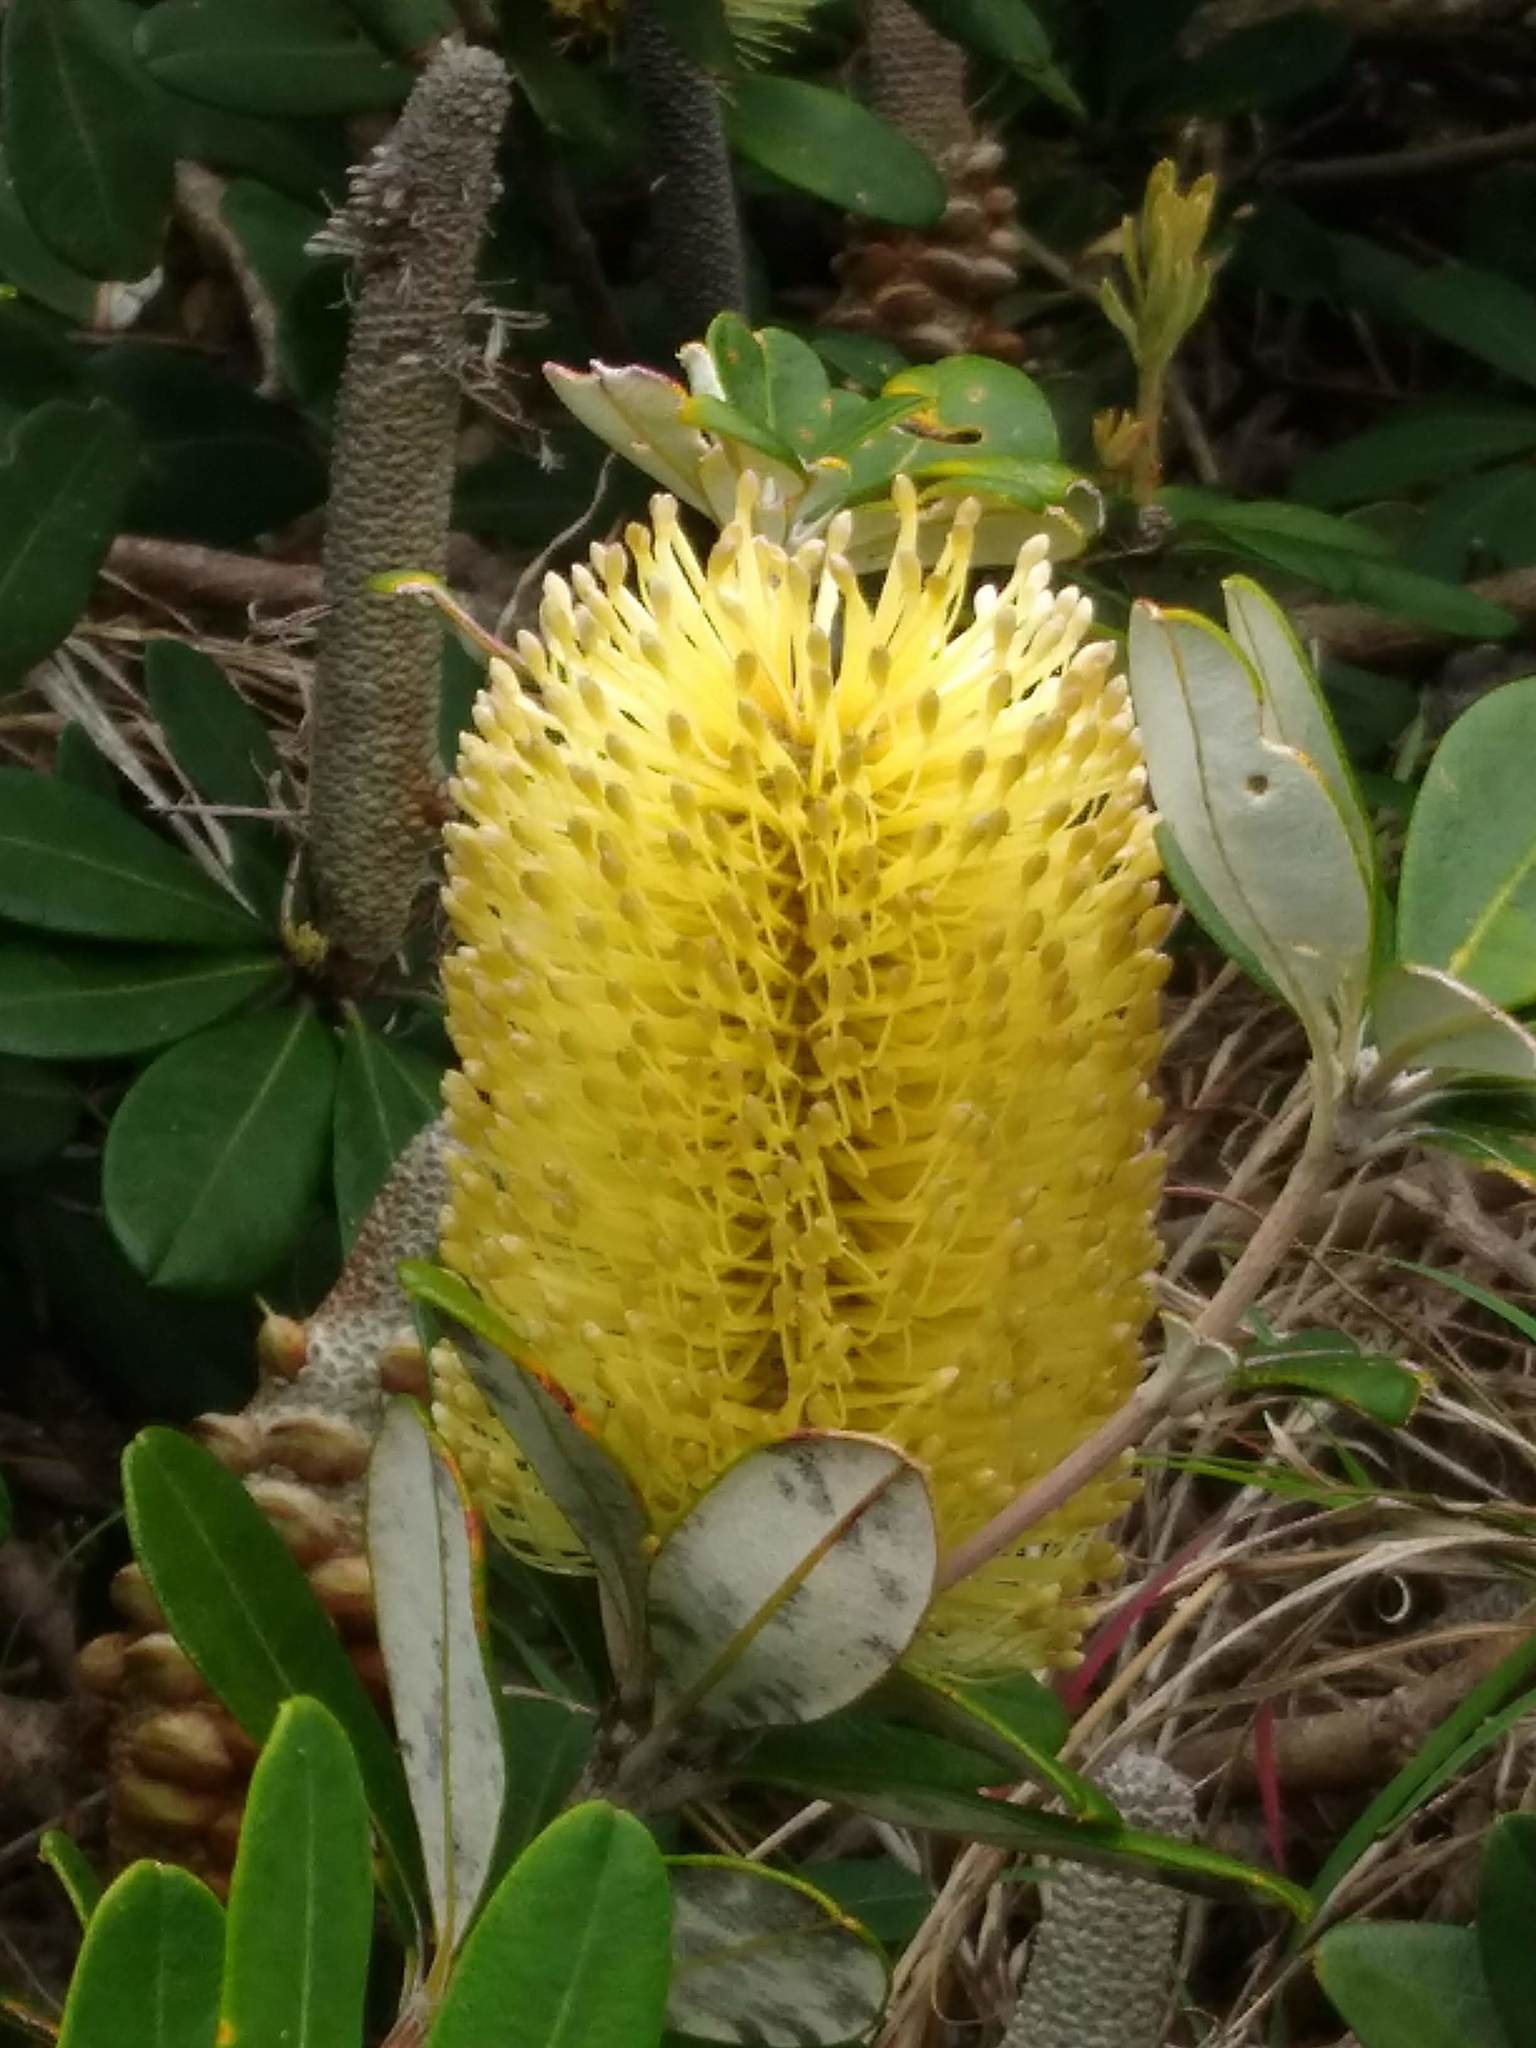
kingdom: Plantae
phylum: Tracheophyta
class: Magnoliopsida
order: Proteales
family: Proteaceae
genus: Banksia
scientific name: Banksia integrifolia
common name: White-honeysuckle
